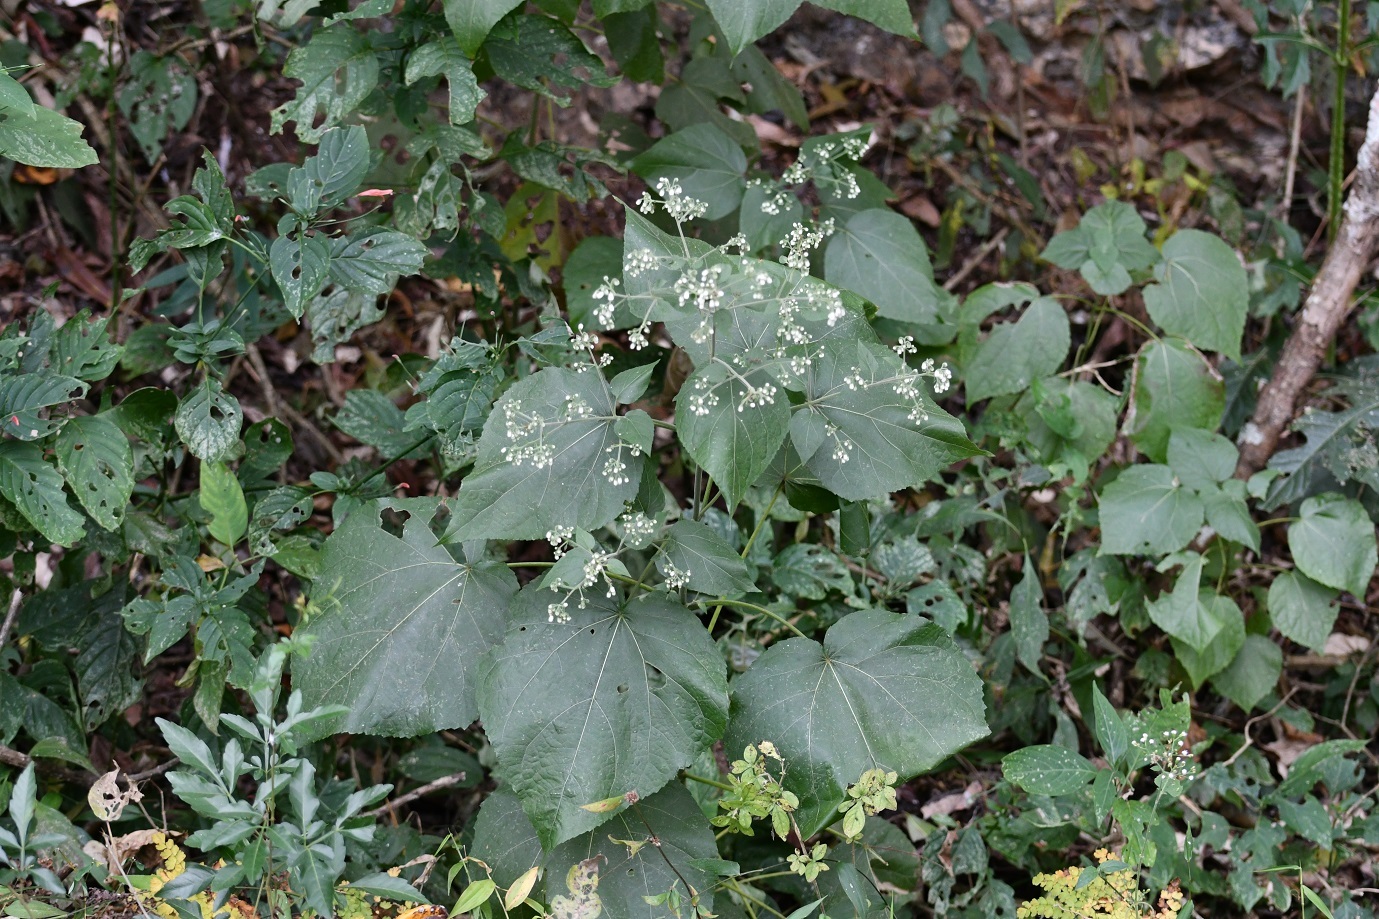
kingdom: Plantae
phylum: Tracheophyta
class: Magnoliopsida
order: Asterales
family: Asteraceae
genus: Peteravenia
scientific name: Peteravenia schultzii
